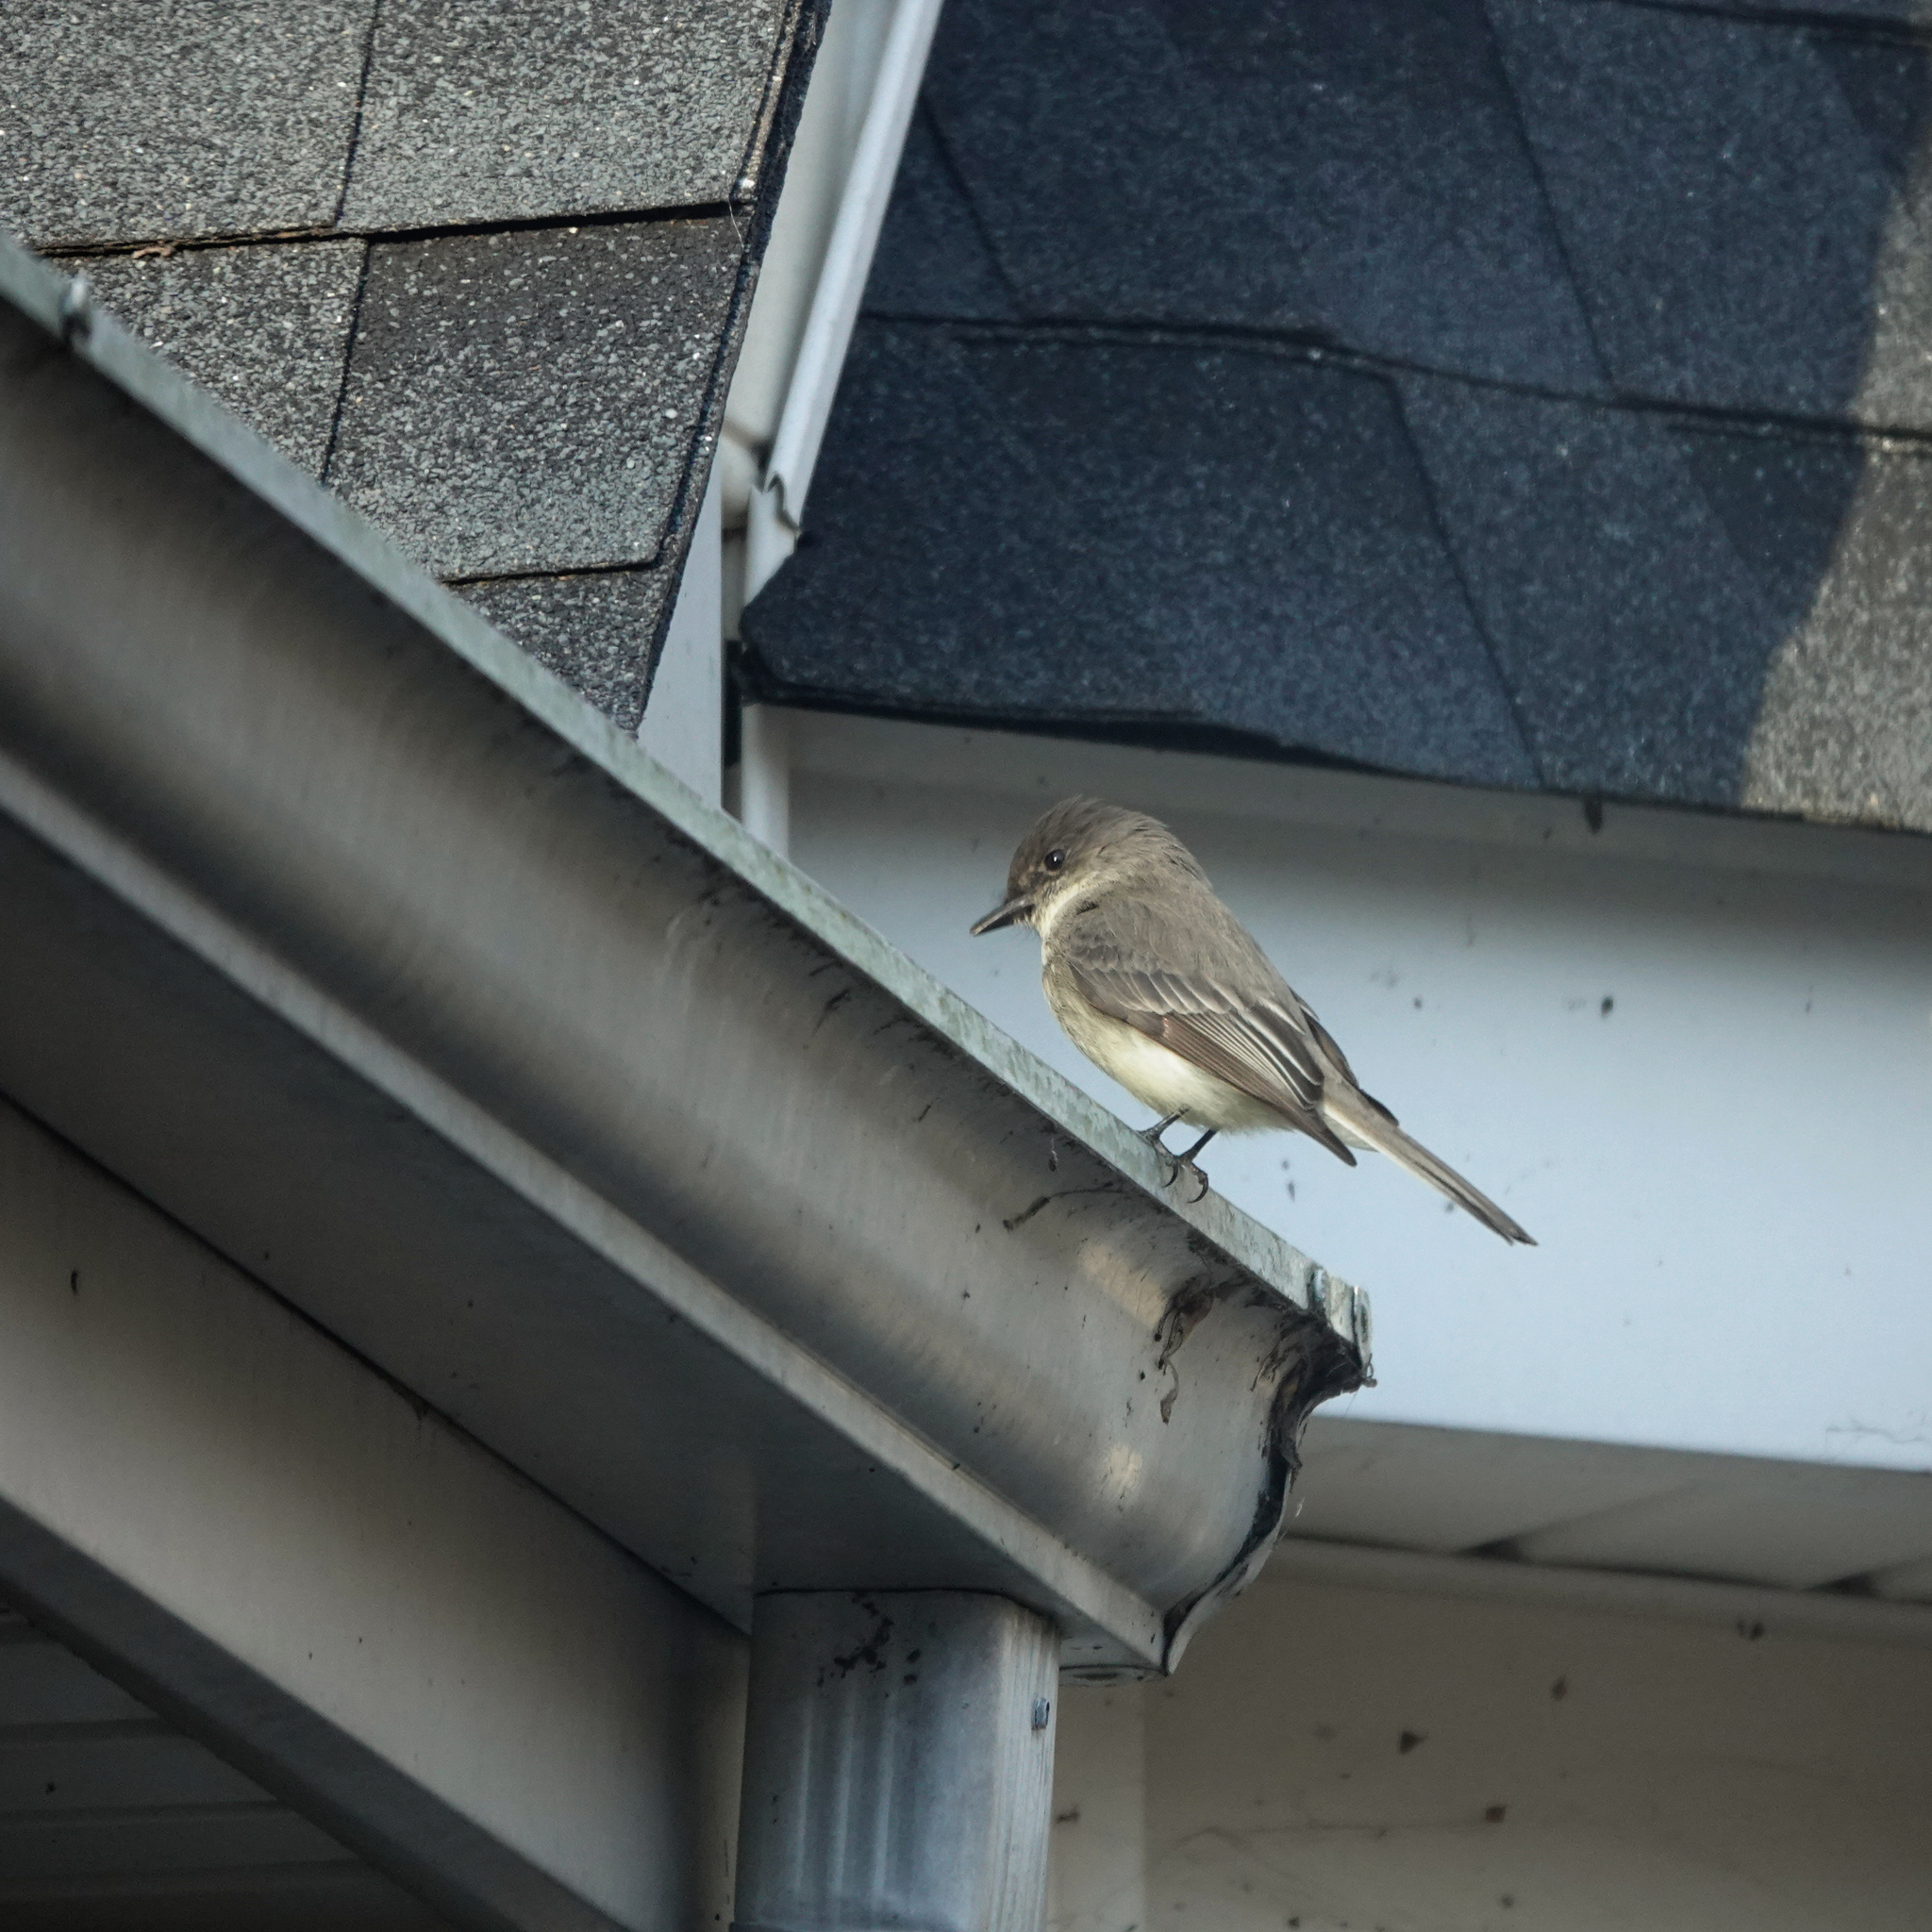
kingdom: Animalia
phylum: Chordata
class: Aves
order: Passeriformes
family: Tyrannidae
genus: Sayornis
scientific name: Sayornis phoebe
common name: Eastern phoebe
